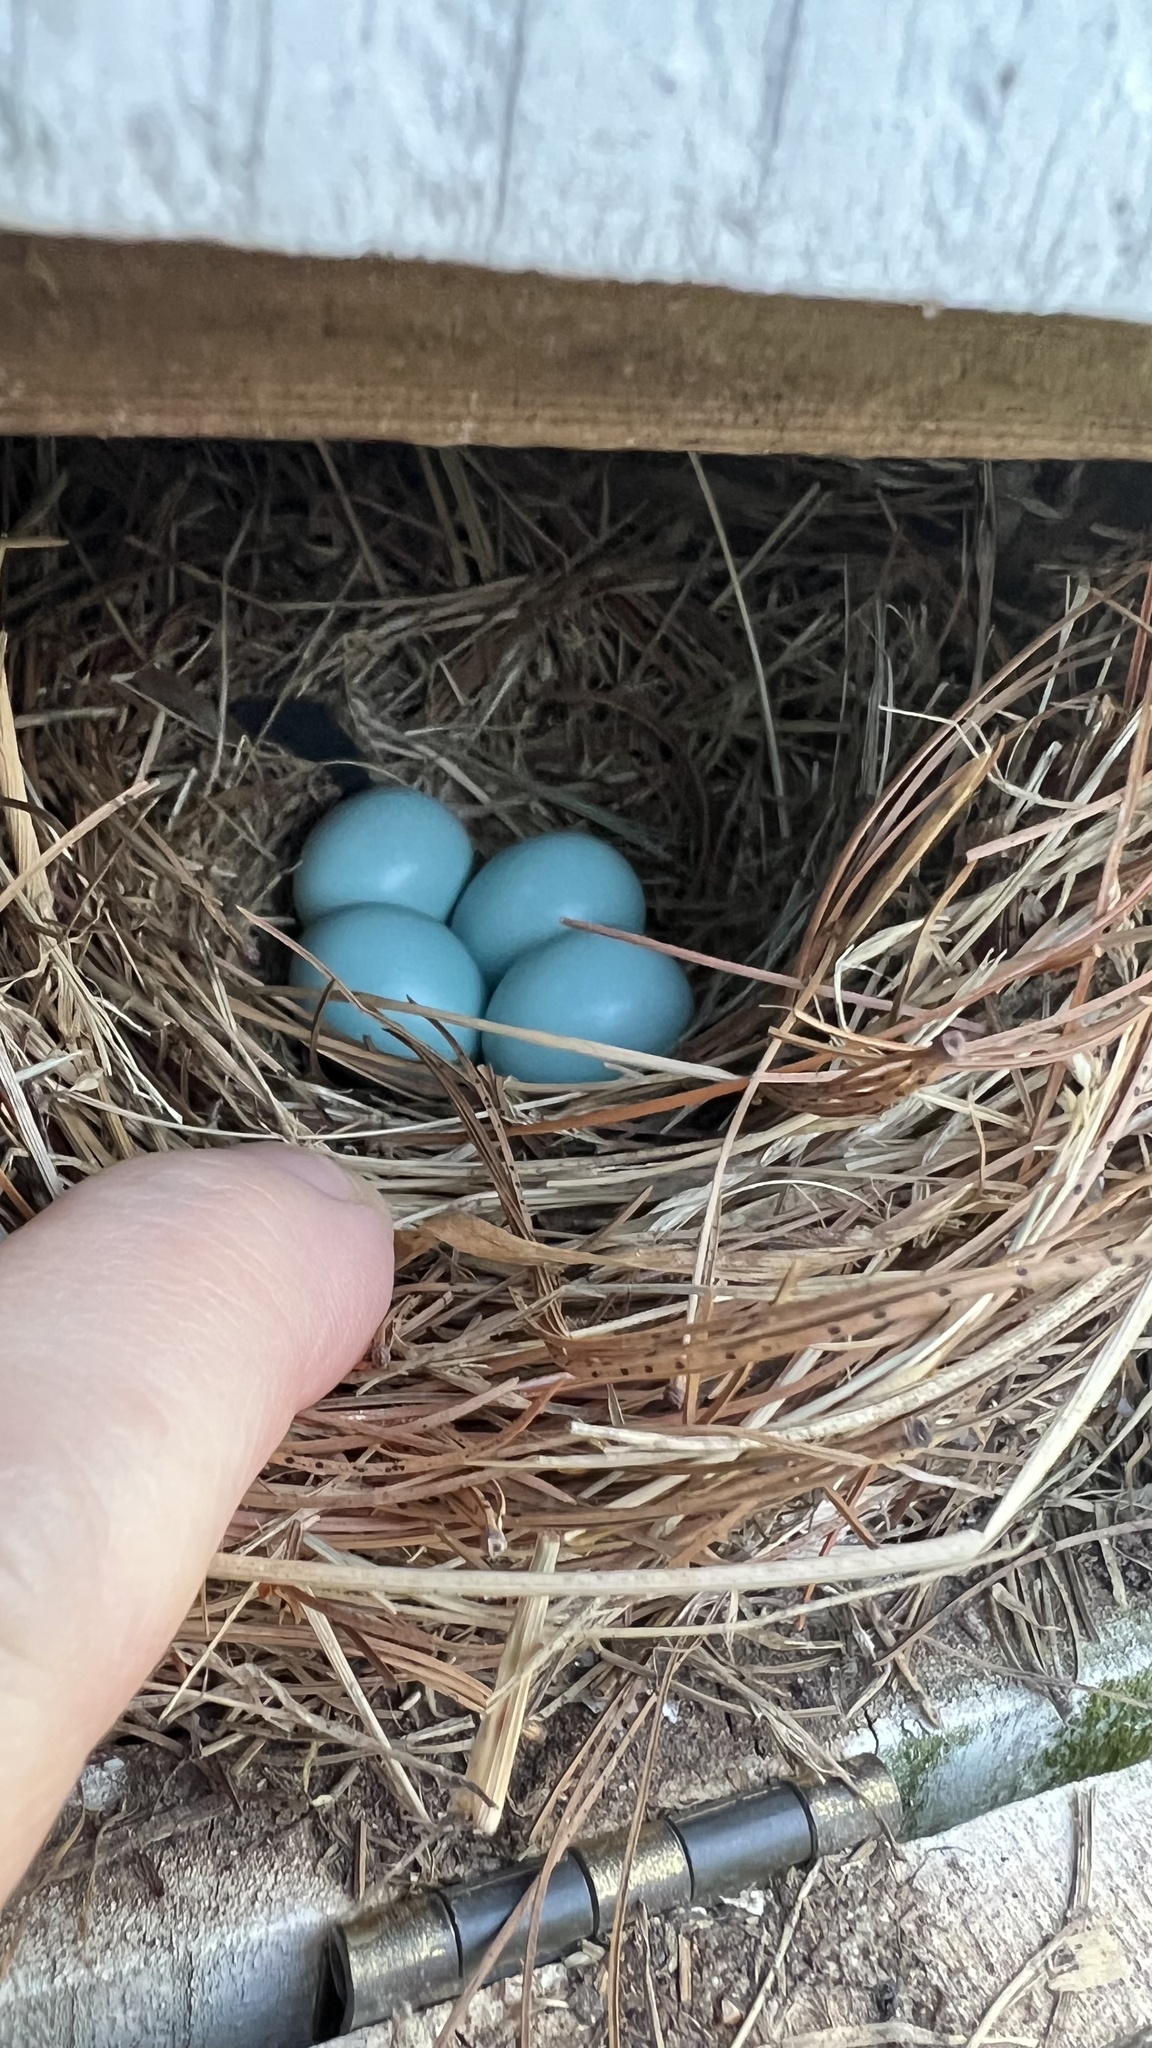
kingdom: Animalia
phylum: Chordata
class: Aves
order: Passeriformes
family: Turdidae
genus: Sialia
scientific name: Sialia sialis
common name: Eastern bluebird
